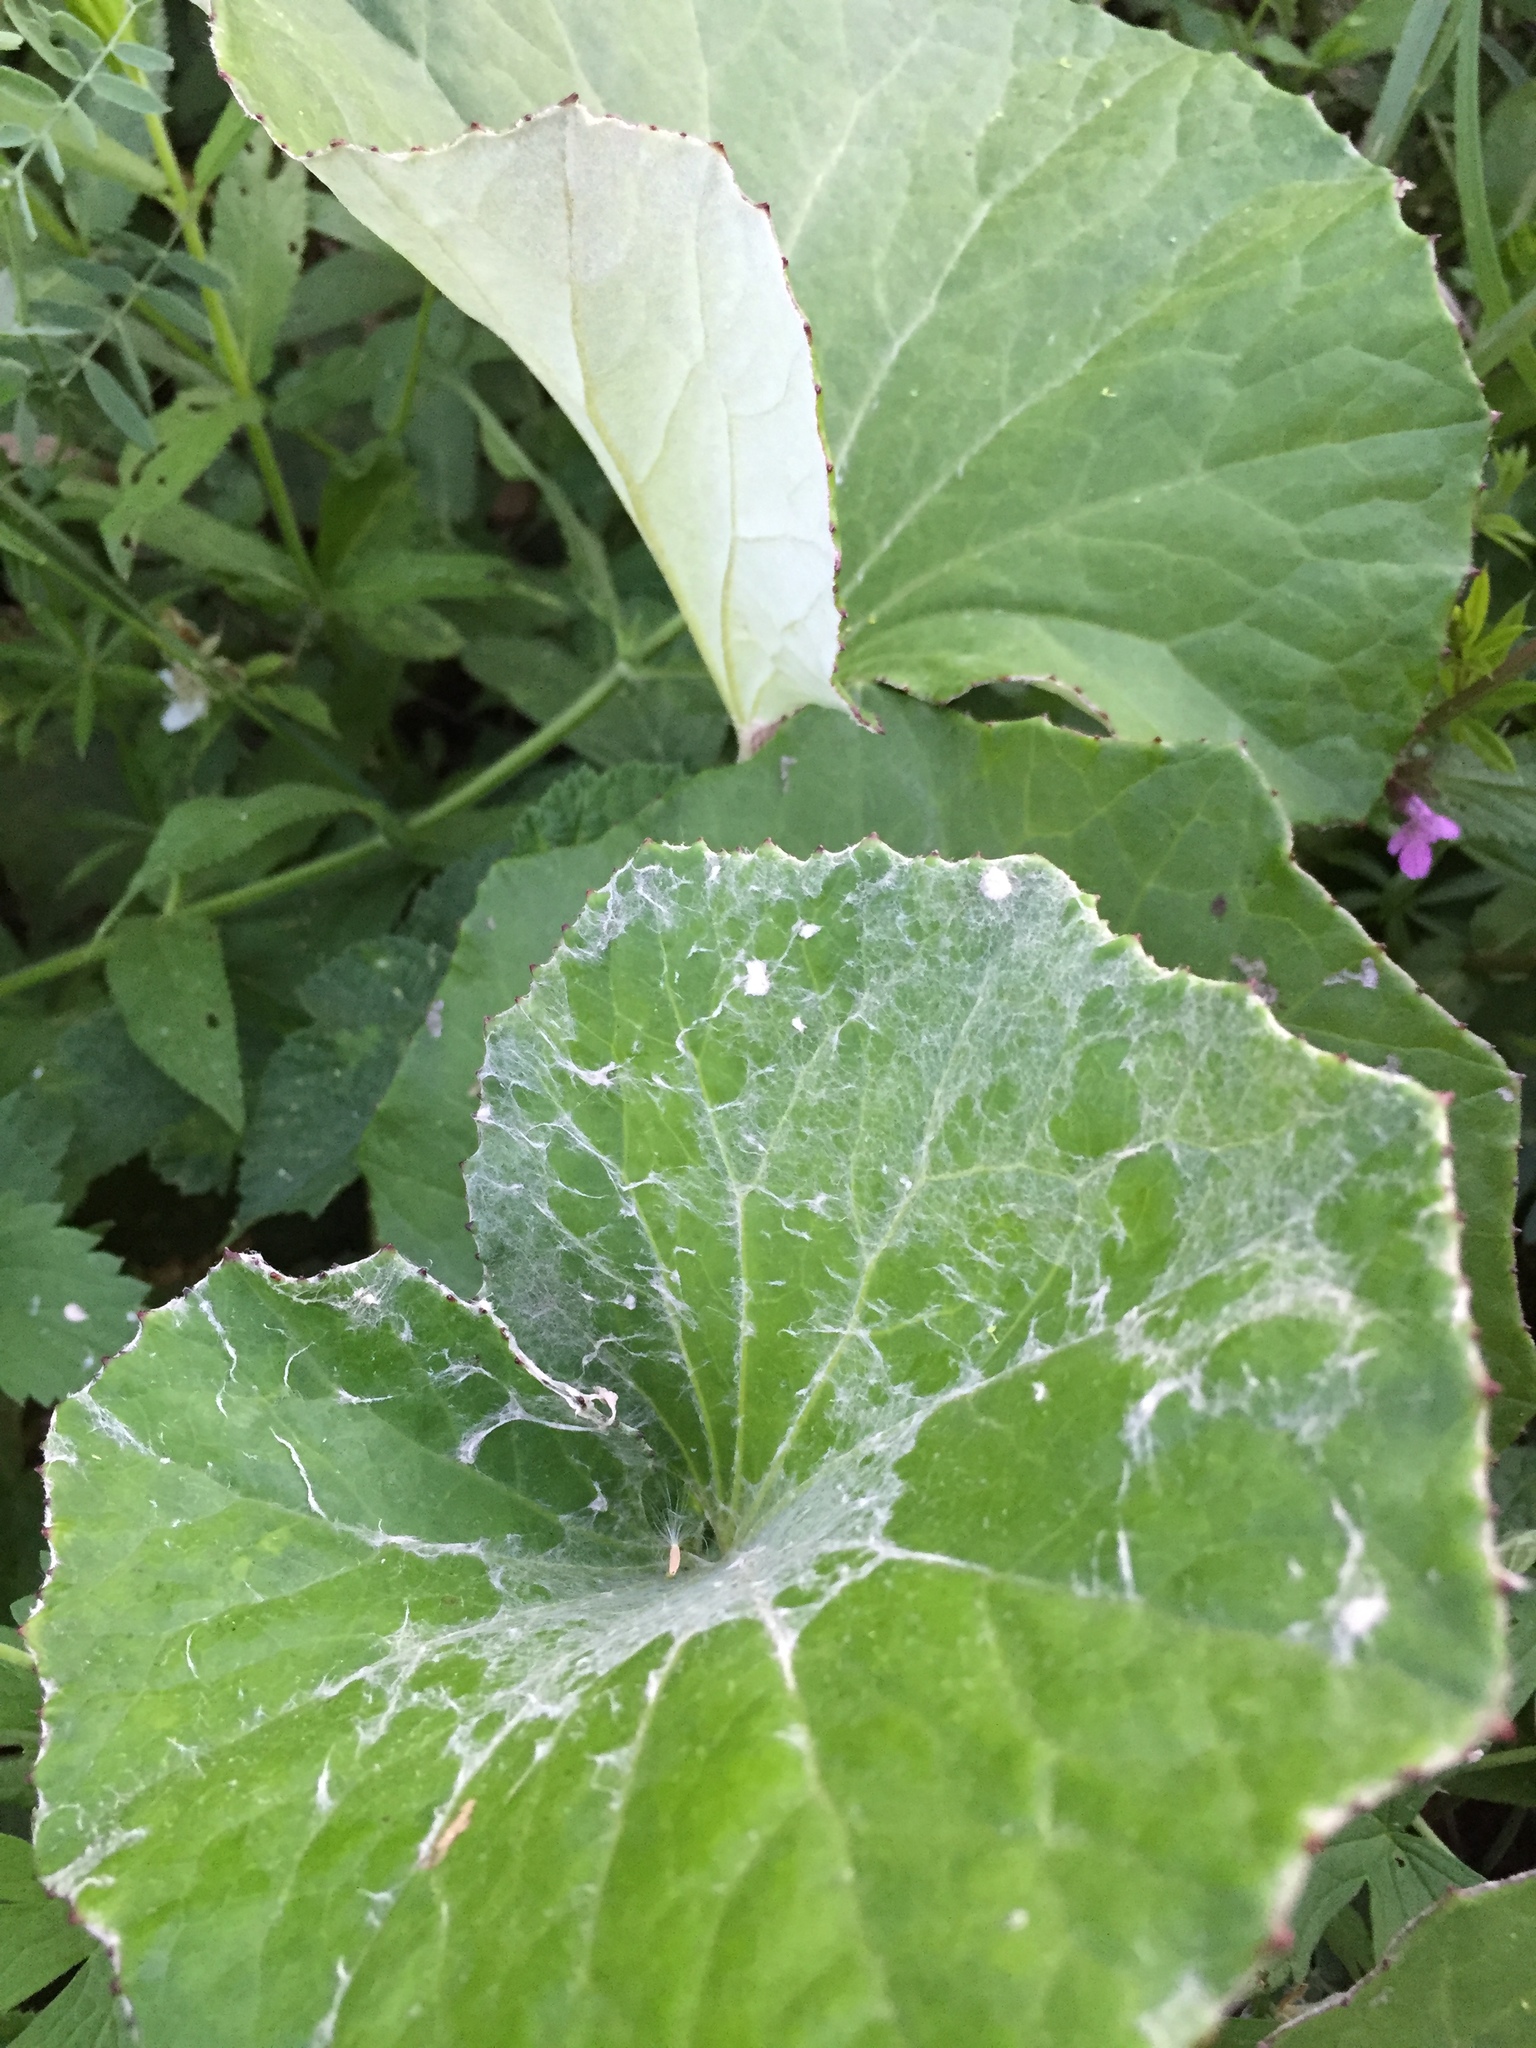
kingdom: Plantae
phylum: Tracheophyta
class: Magnoliopsida
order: Asterales
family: Asteraceae
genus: Tussilago
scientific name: Tussilago farfara
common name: Coltsfoot
